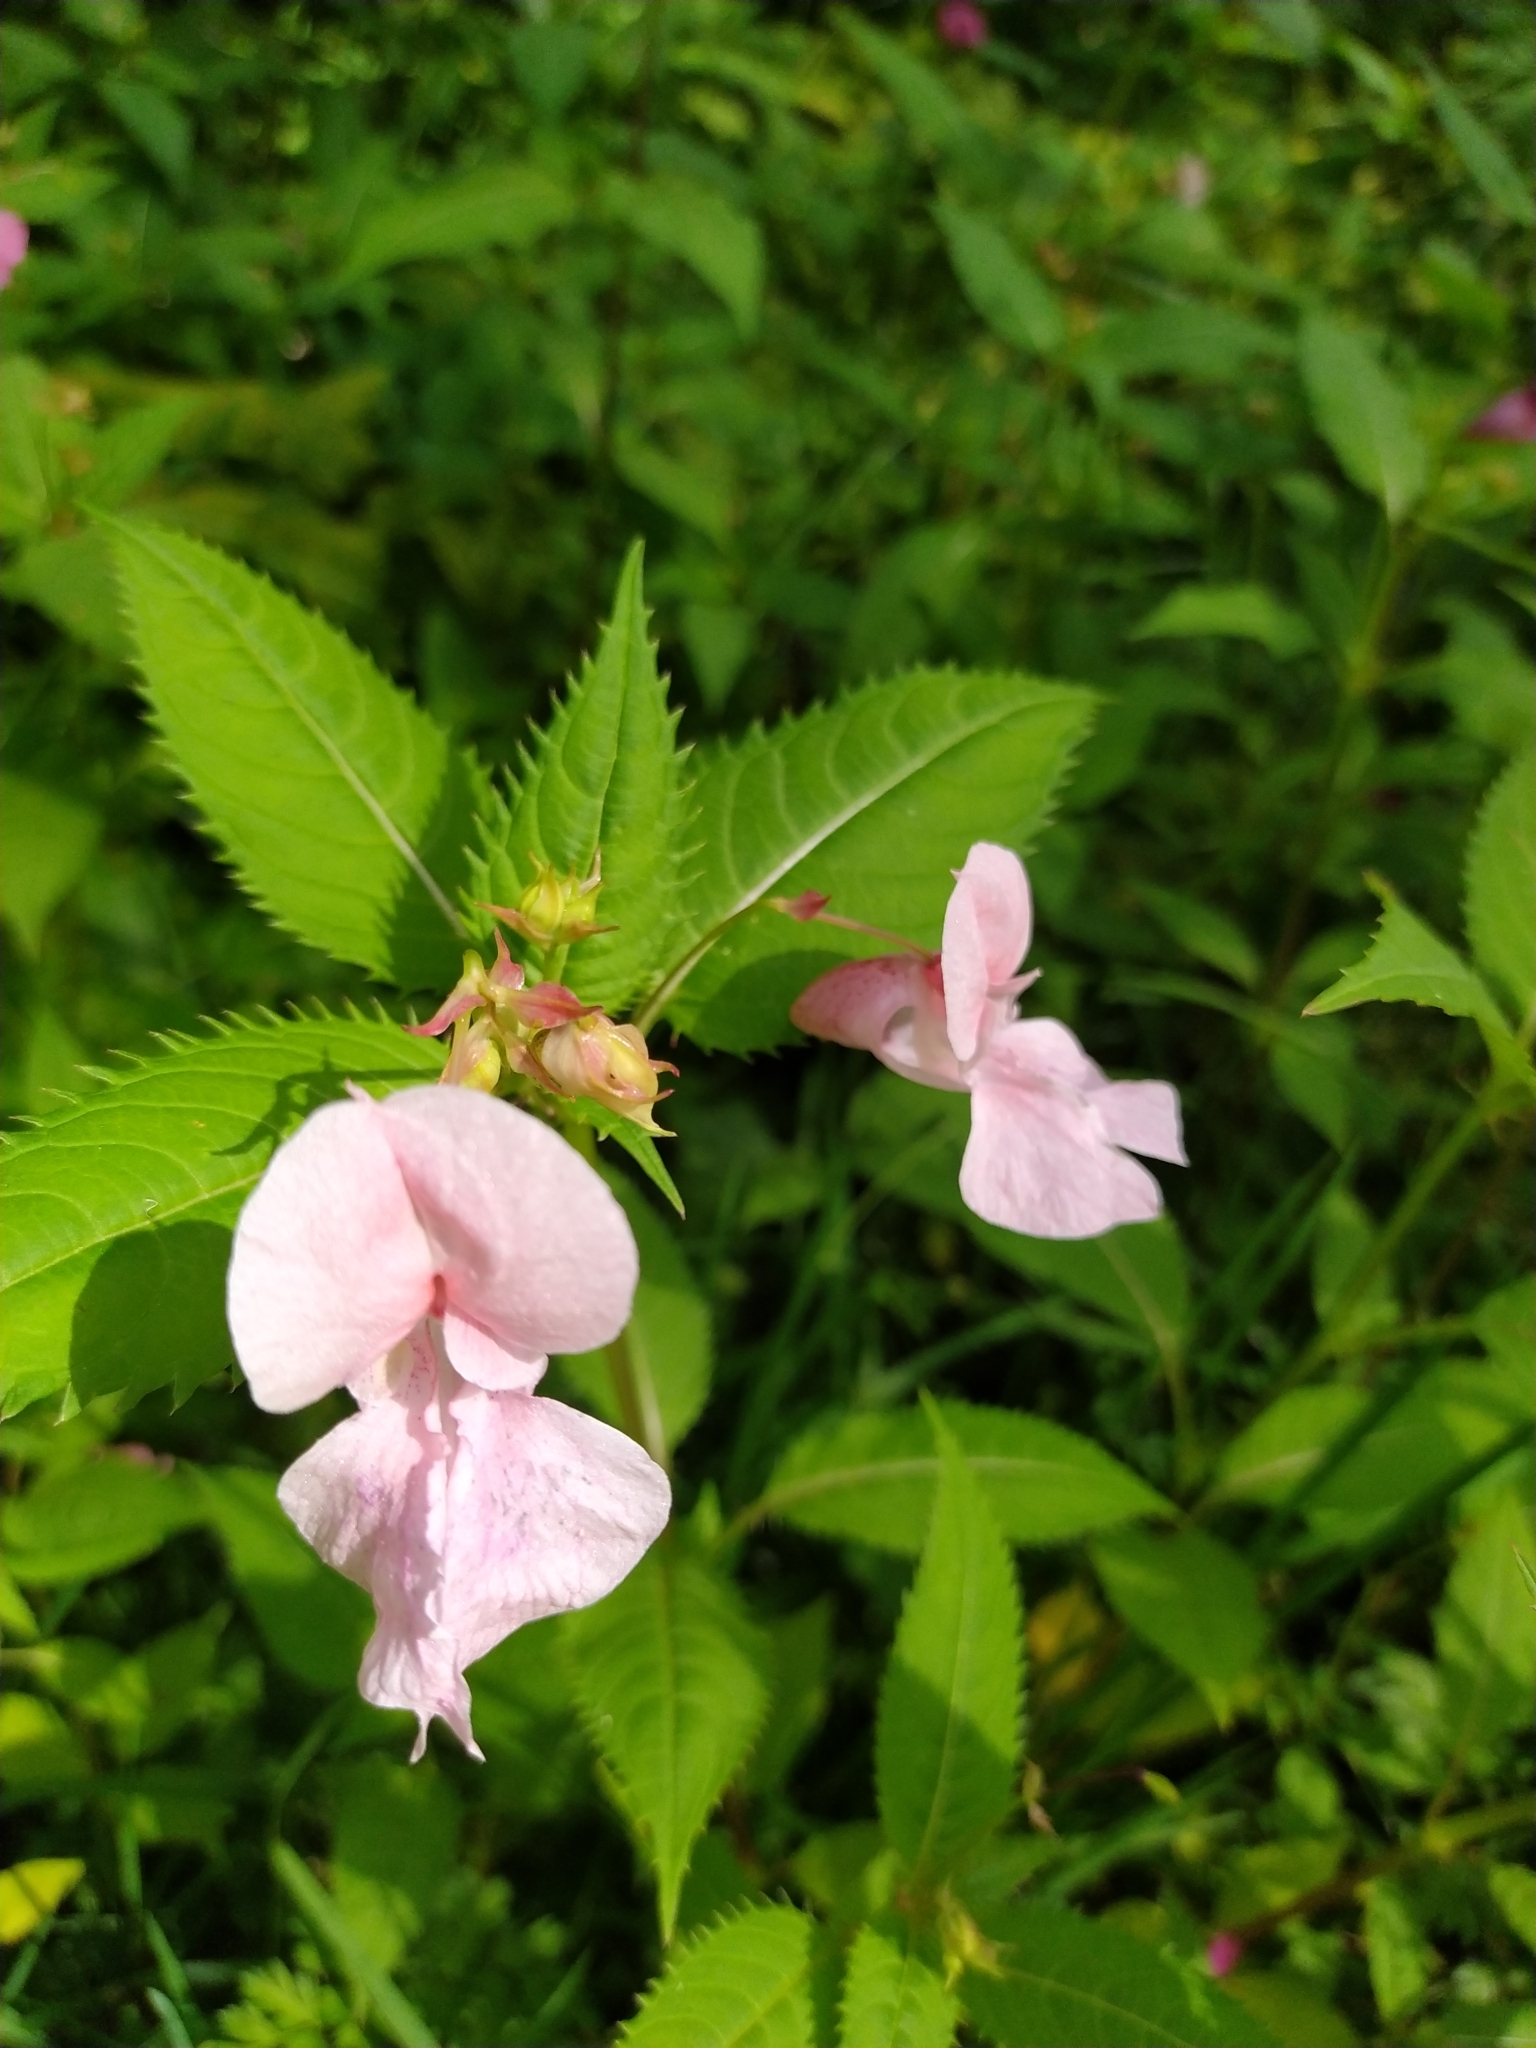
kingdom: Plantae
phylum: Tracheophyta
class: Magnoliopsida
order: Ericales
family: Balsaminaceae
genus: Impatiens
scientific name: Impatiens glandulifera
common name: Himalayan balsam
